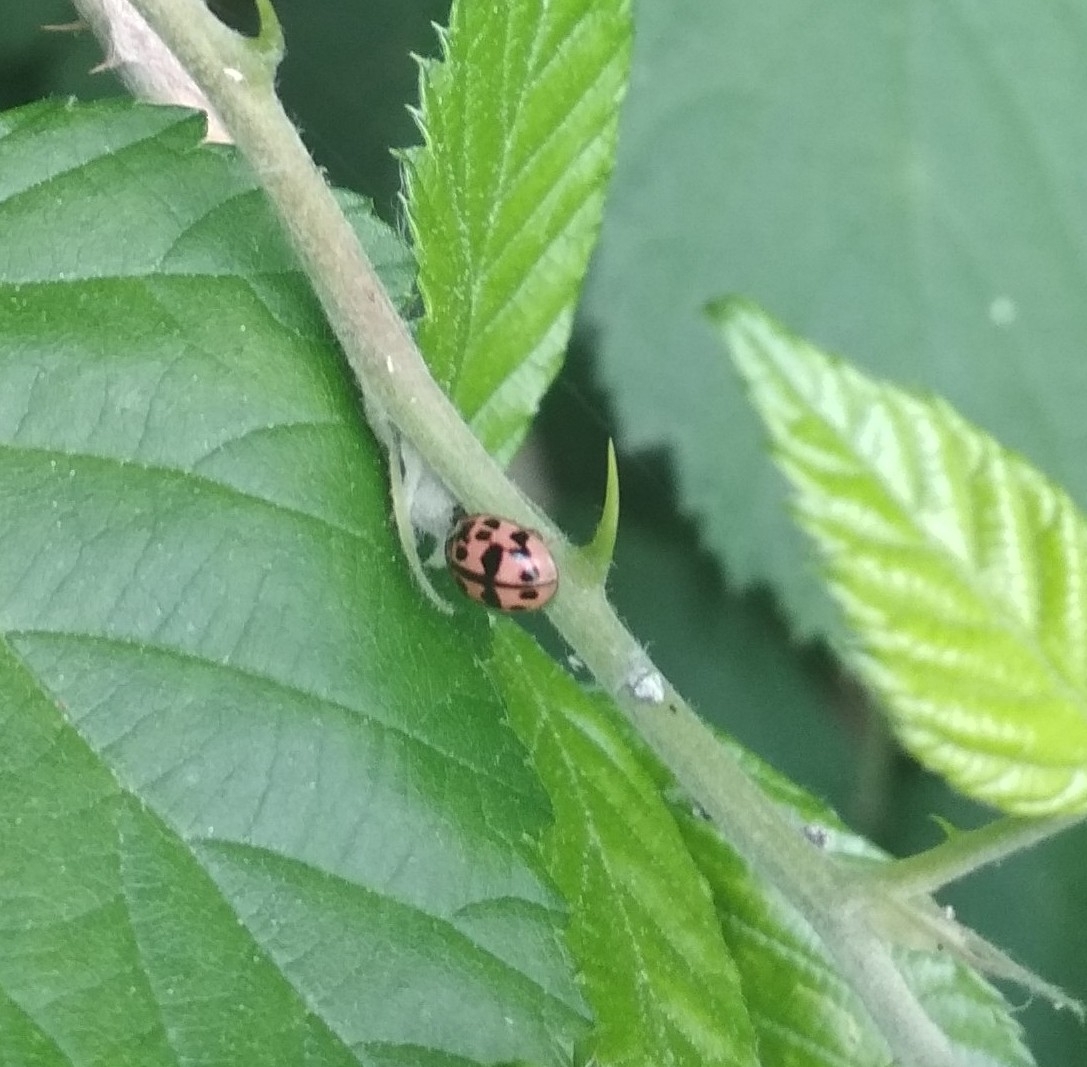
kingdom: Animalia
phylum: Arthropoda
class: Insecta
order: Coleoptera
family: Coccinellidae
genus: Oenopia
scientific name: Oenopia conglobata
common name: Ladybird beetle
